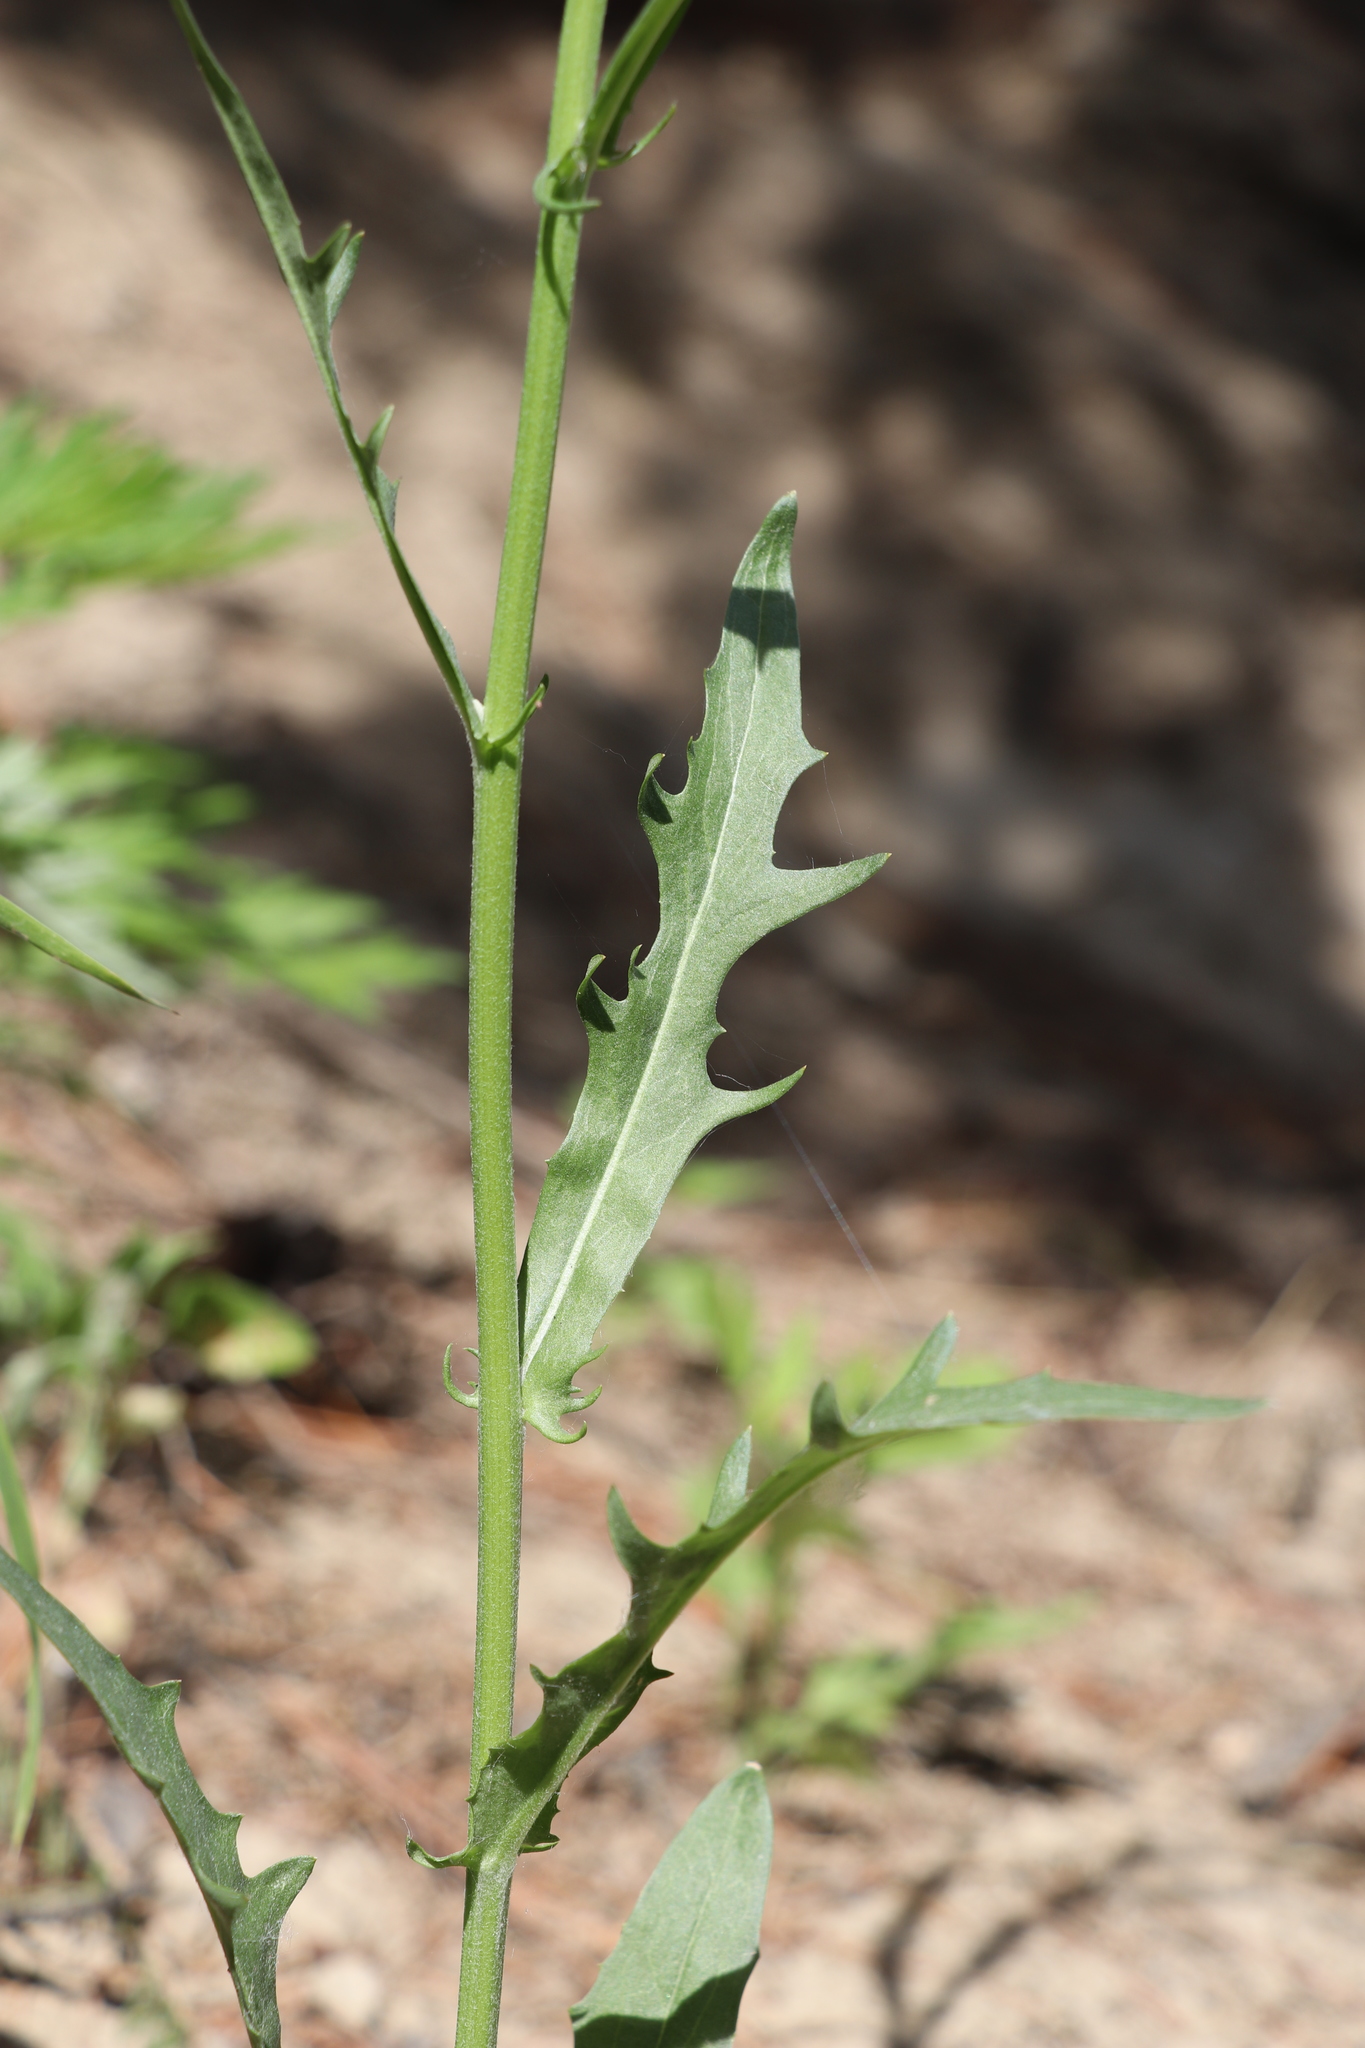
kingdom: Plantae
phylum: Tracheophyta
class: Magnoliopsida
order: Asterales
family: Asteraceae
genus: Crepis
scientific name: Crepis tectorum
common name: Narrow-leaved hawk's-beard
